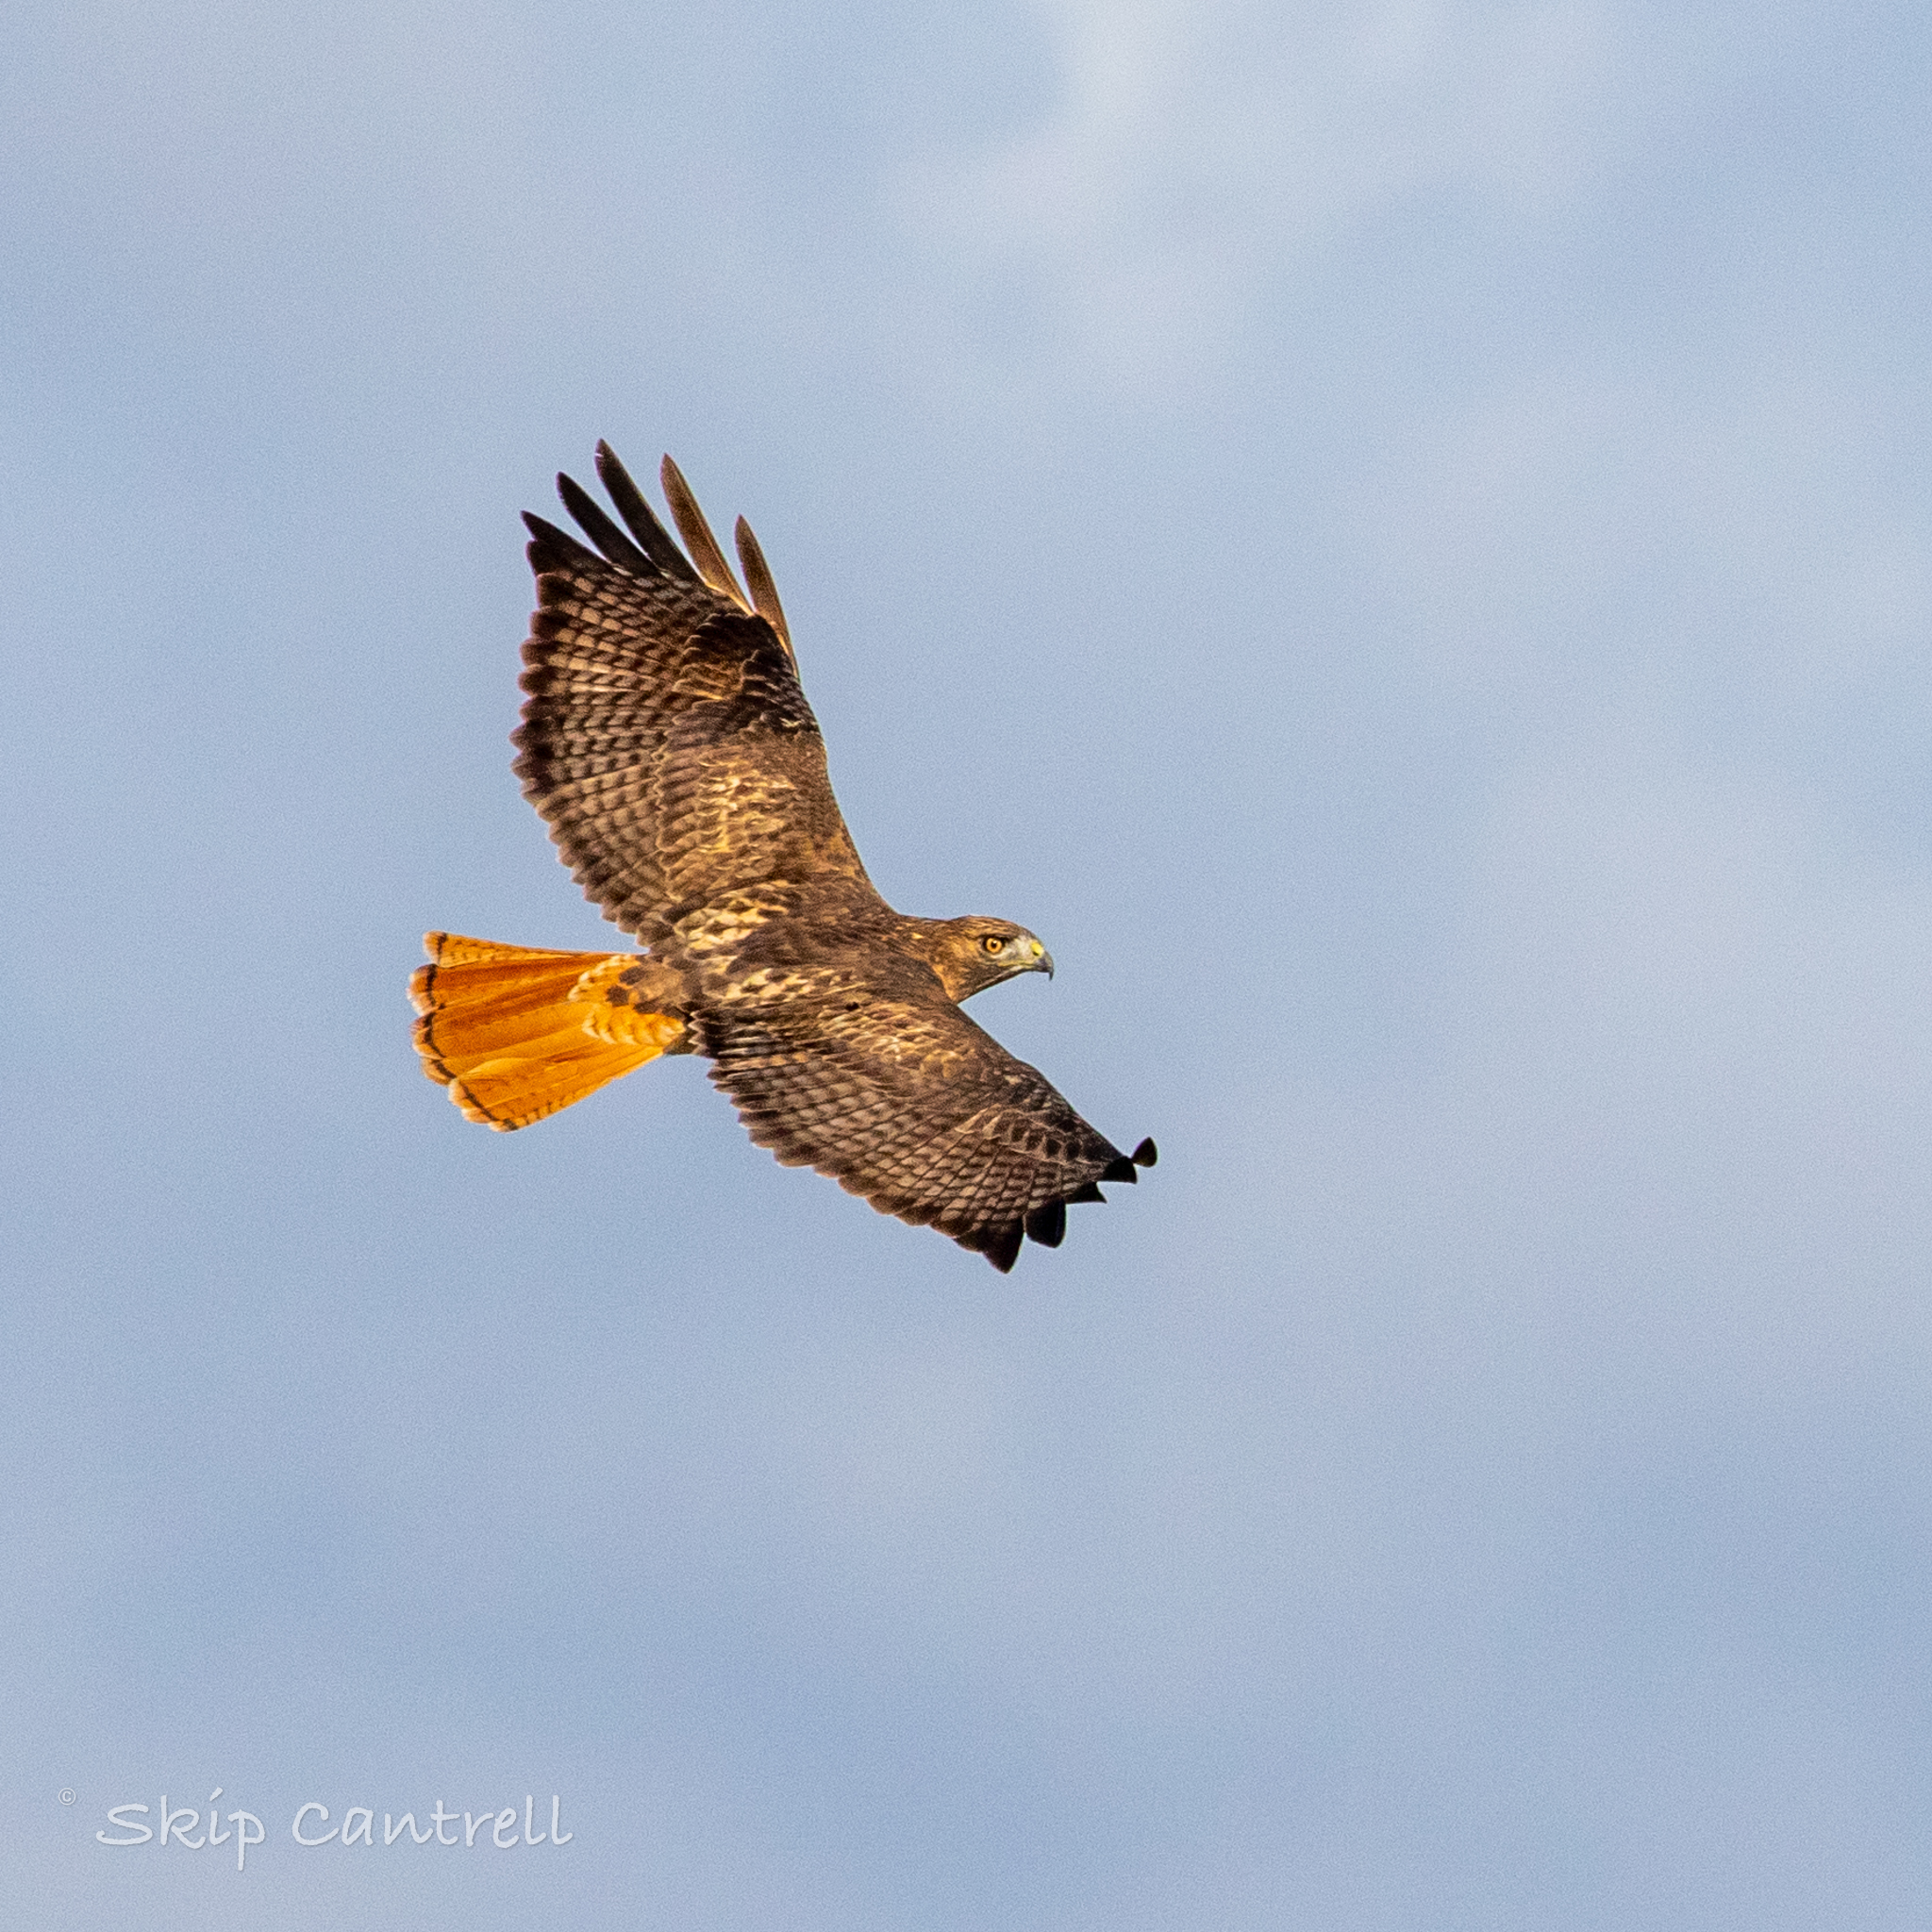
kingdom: Animalia
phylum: Chordata
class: Aves
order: Accipitriformes
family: Accipitridae
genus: Buteo
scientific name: Buteo jamaicensis
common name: Red-tailed hawk
